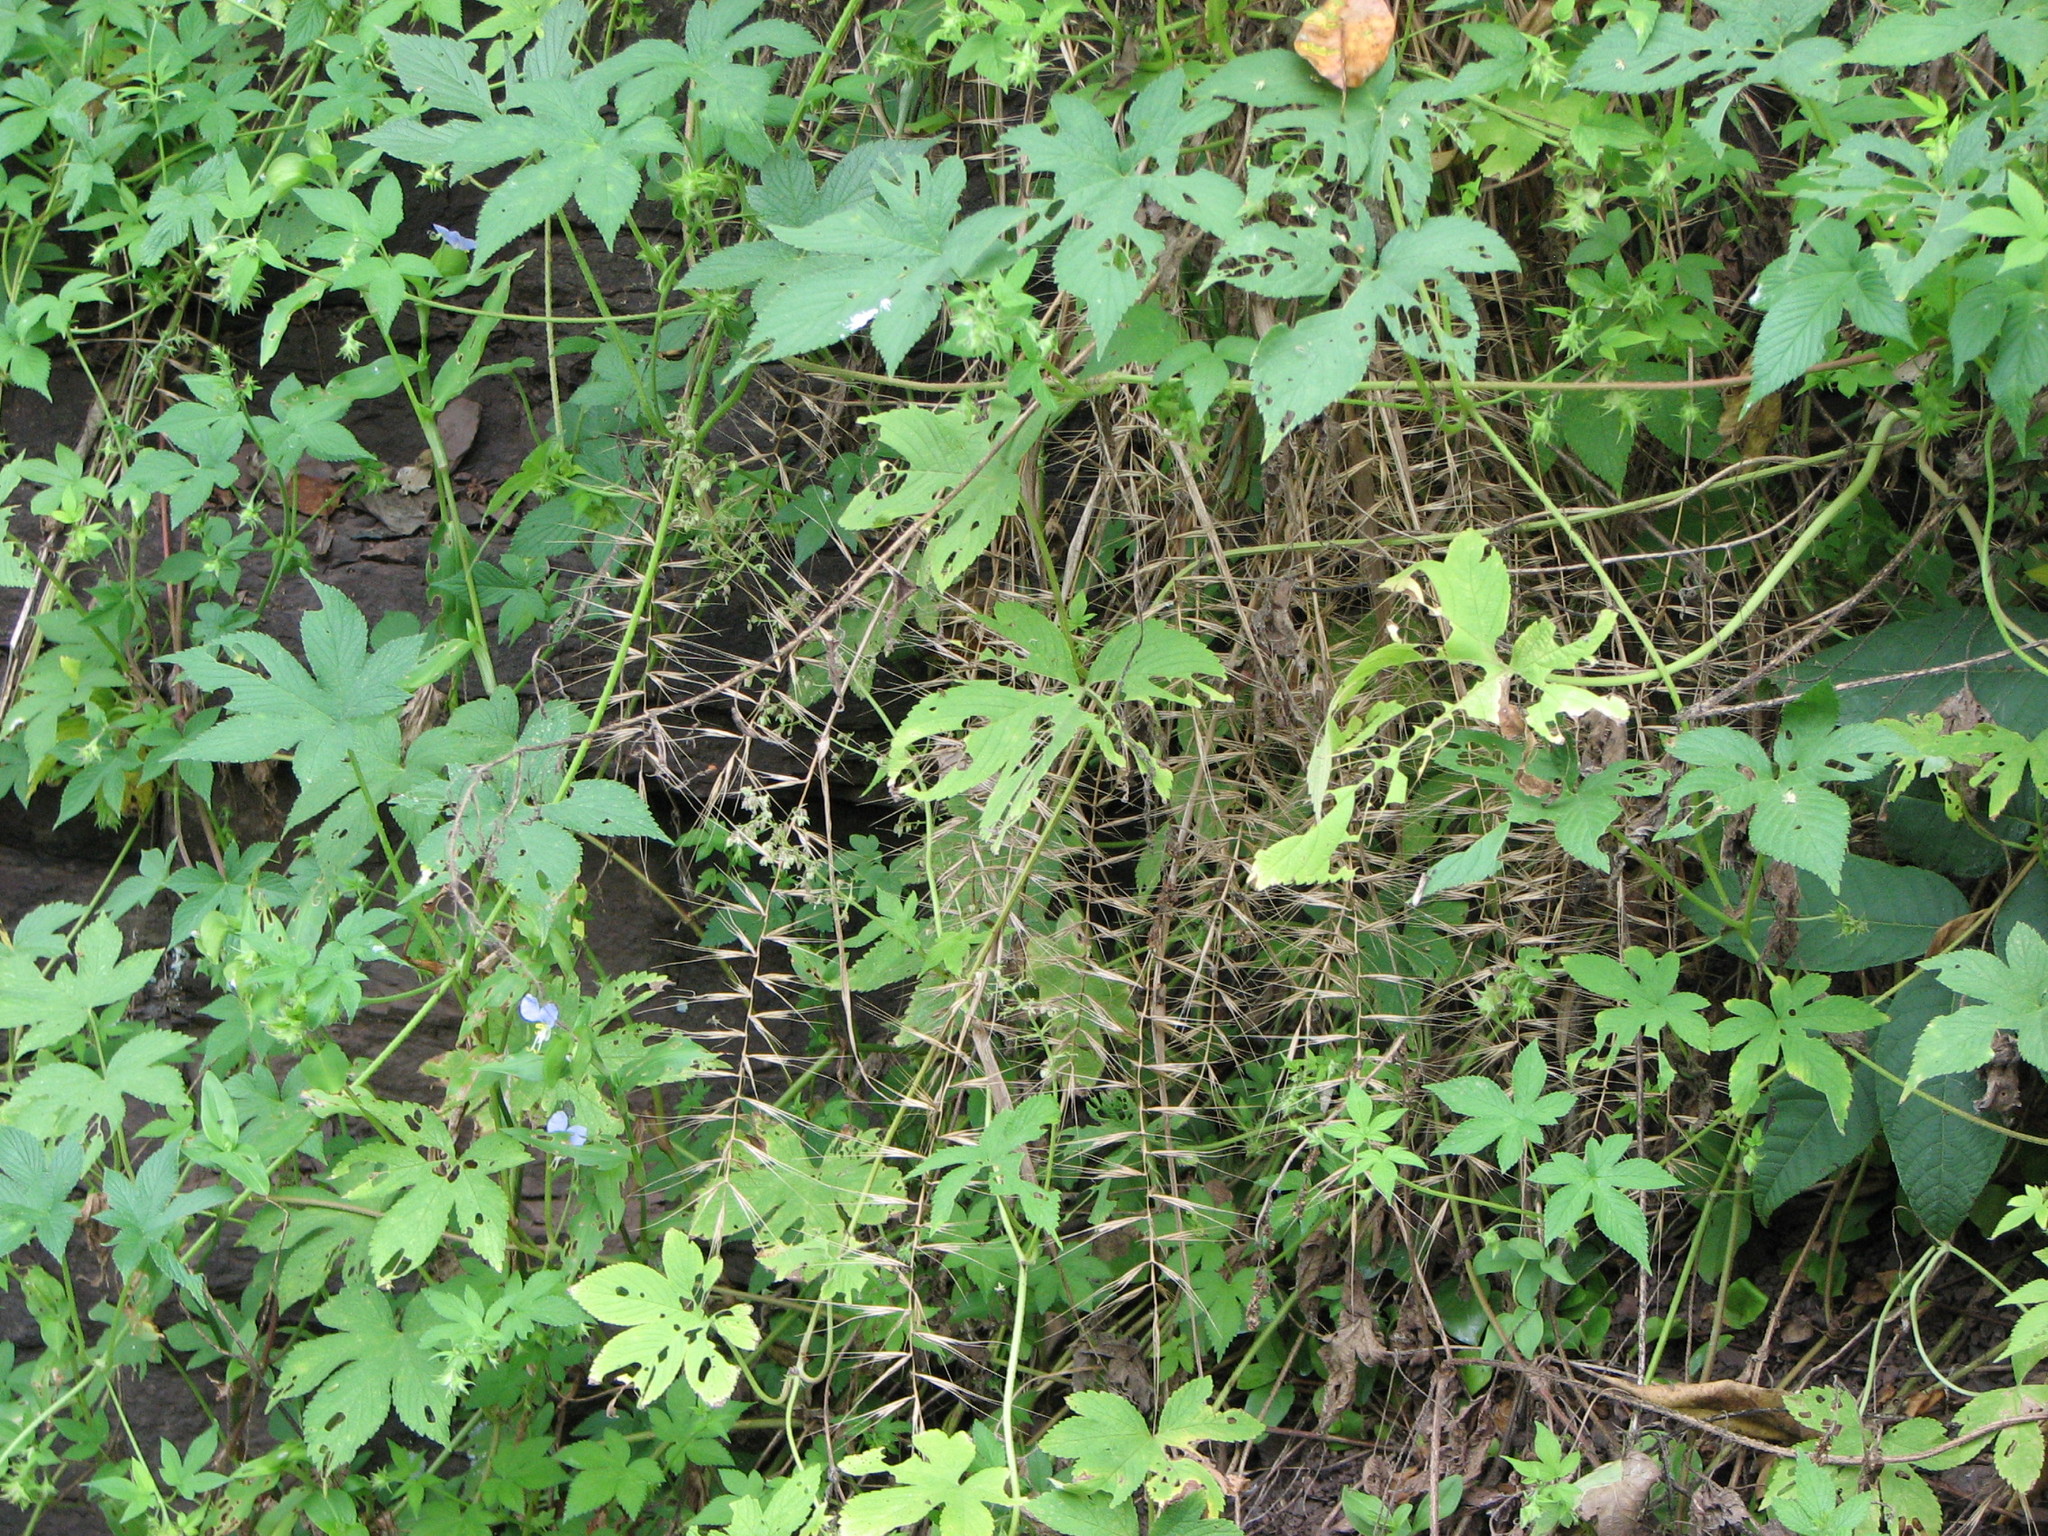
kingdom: Plantae
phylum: Tracheophyta
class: Liliopsida
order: Poales
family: Poaceae
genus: Elymus
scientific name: Elymus hystrix
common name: Bottlebrush grass
